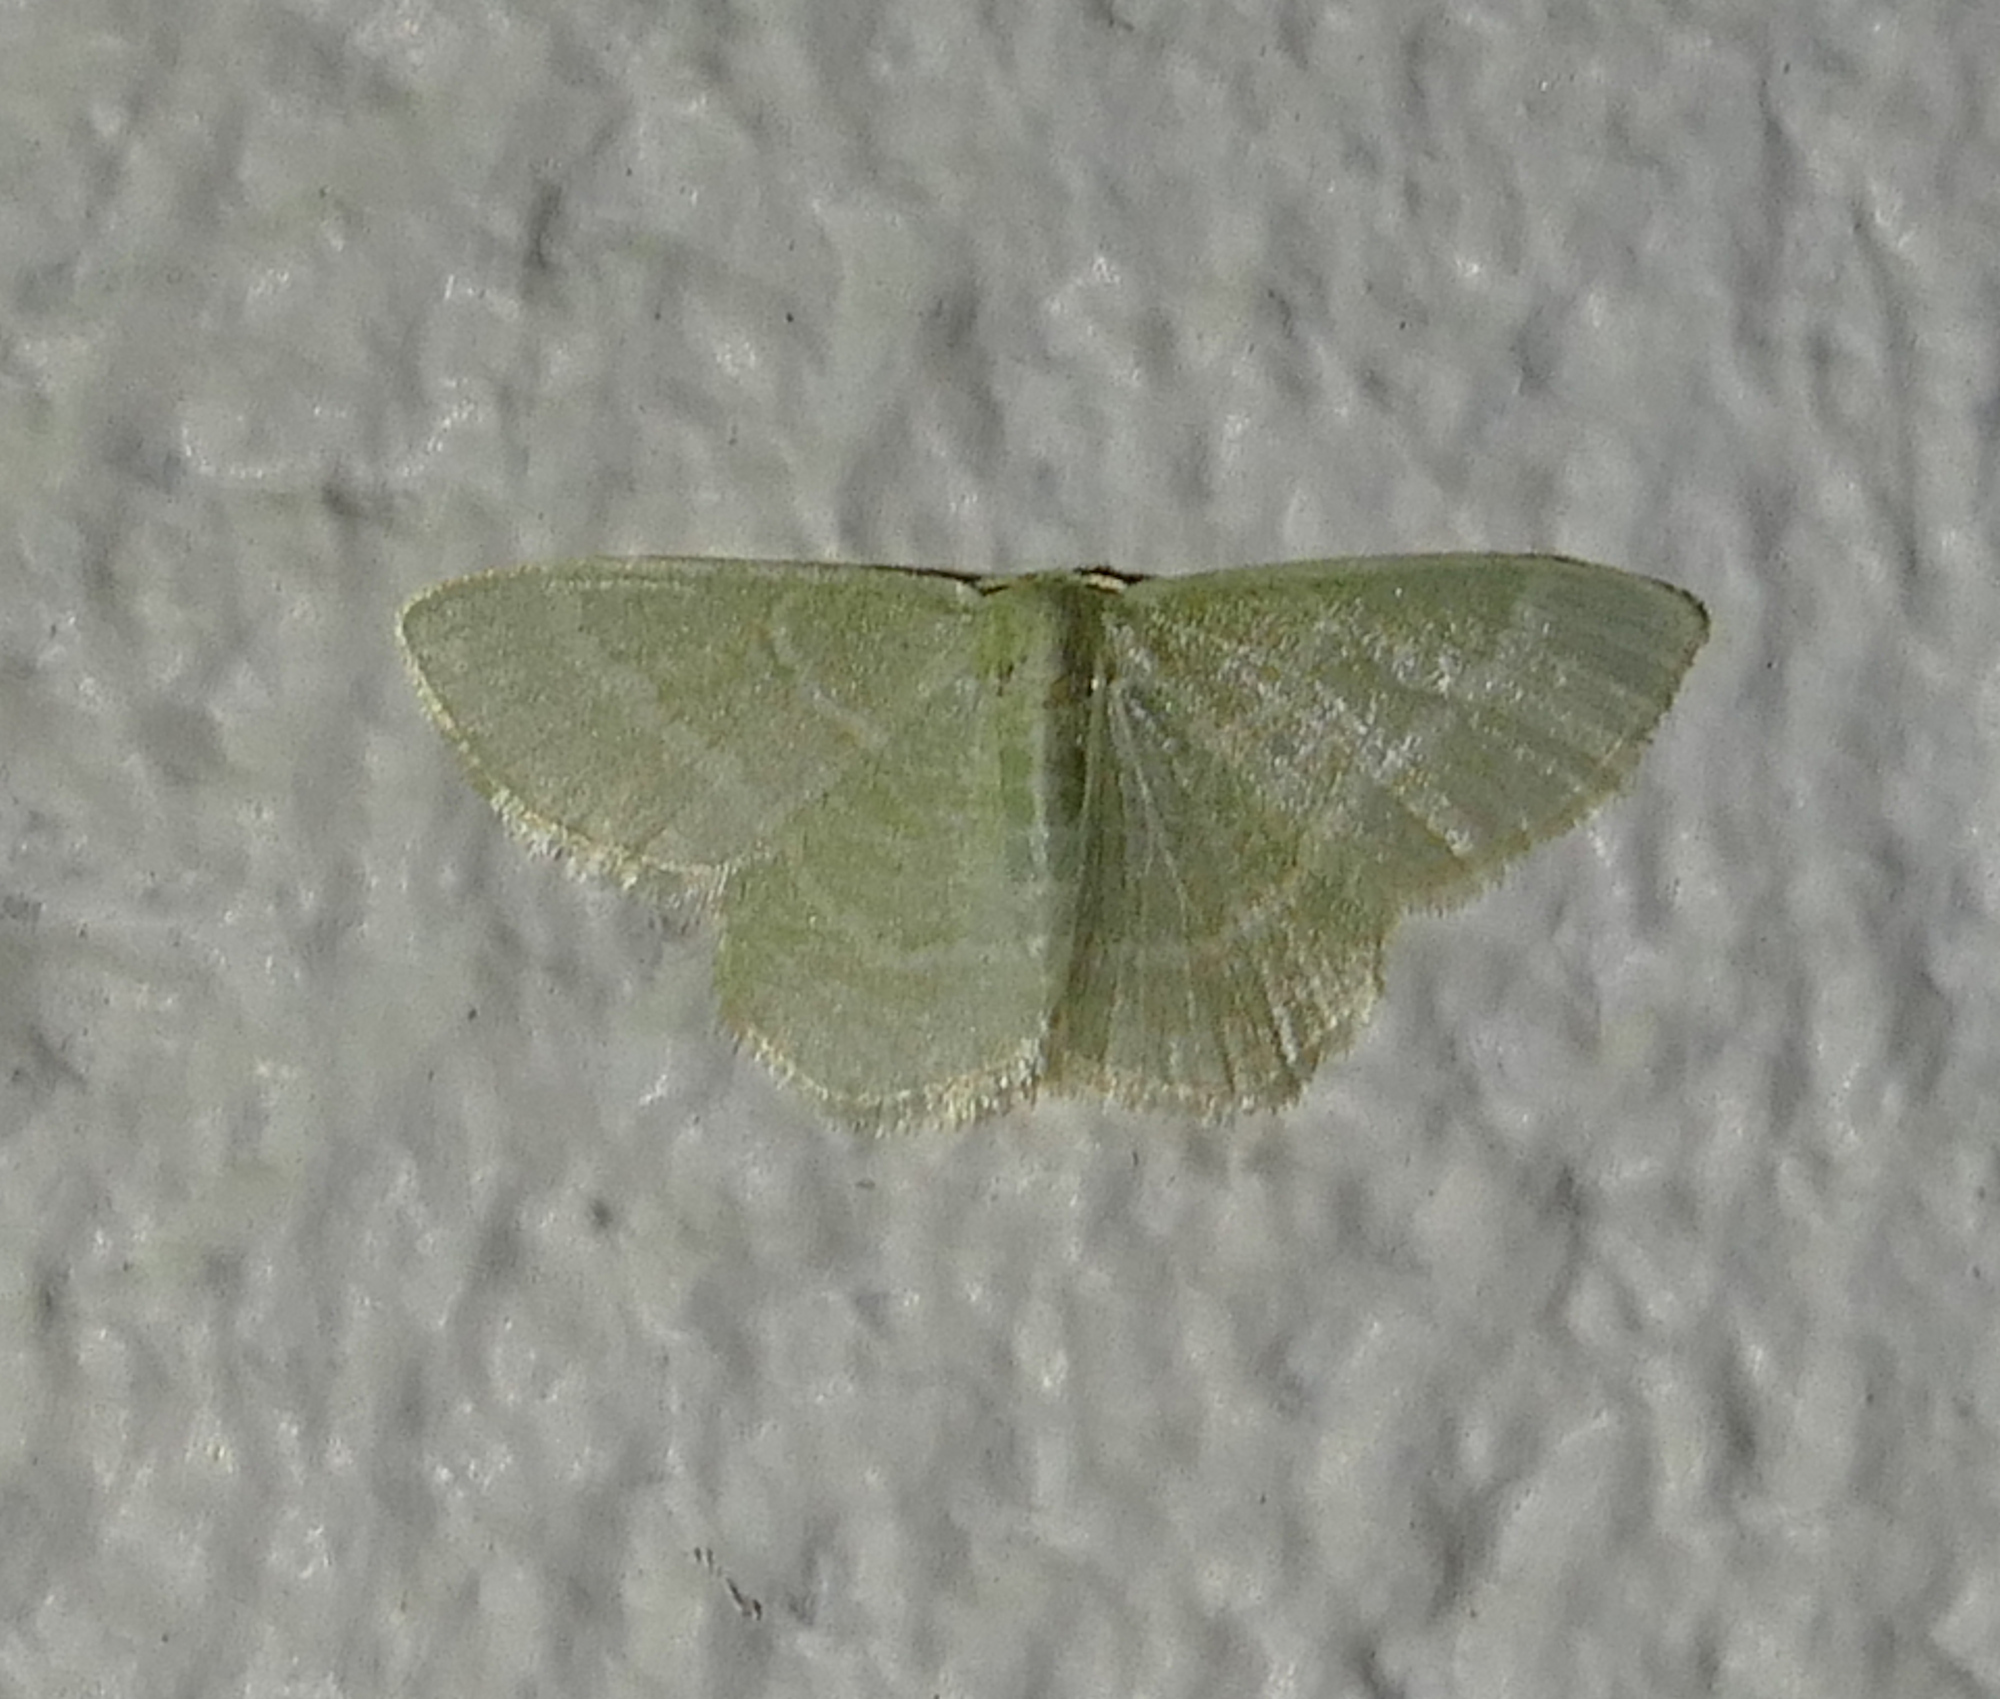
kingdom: Animalia
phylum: Arthropoda
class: Insecta
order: Lepidoptera
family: Geometridae
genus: Chlorochlamys
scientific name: Chlorochlamys chloroleucaria
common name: Blackberry looper
